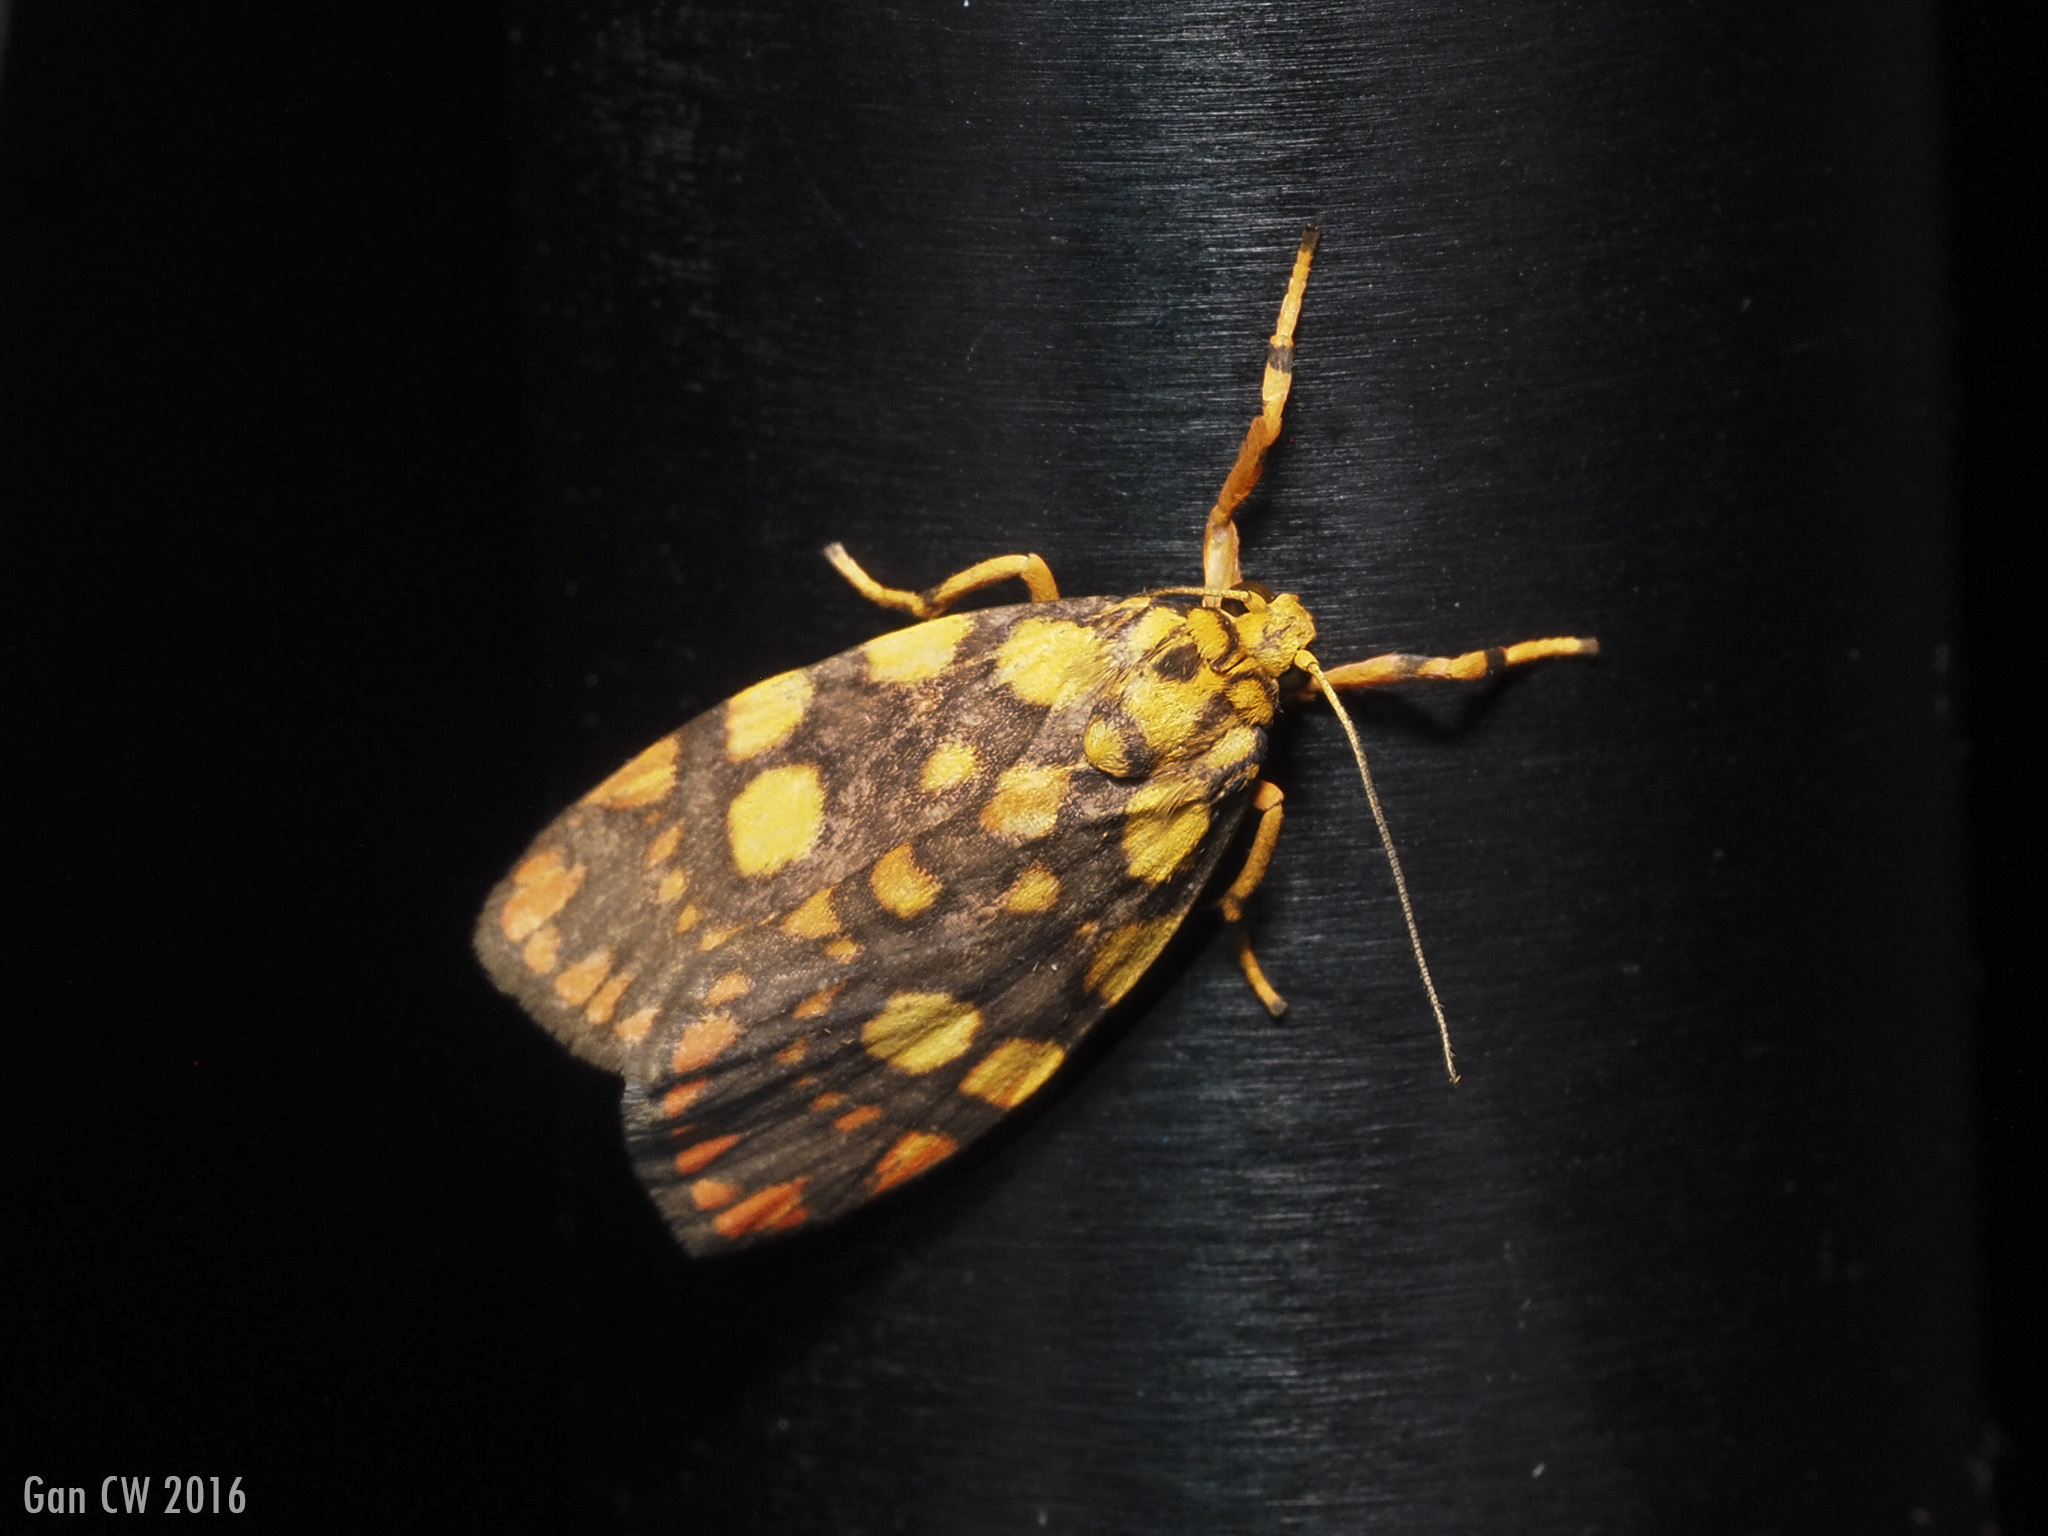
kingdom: Animalia
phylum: Arthropoda
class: Insecta
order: Lepidoptera
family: Erebidae
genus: Cyme
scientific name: Cyme reticulata
